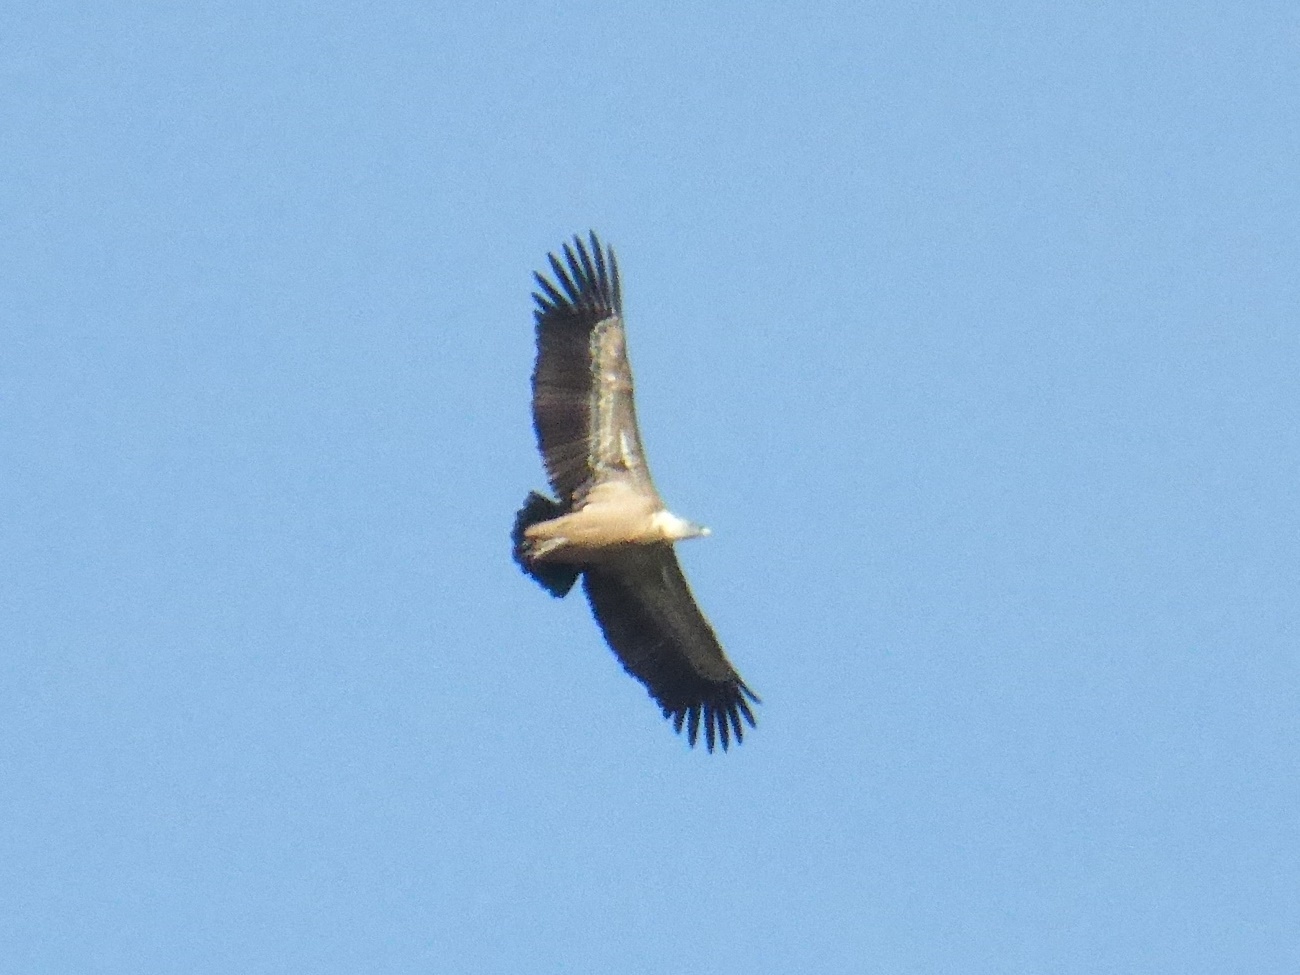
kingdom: Animalia
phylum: Chordata
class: Aves
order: Accipitriformes
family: Accipitridae
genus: Gyps
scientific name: Gyps fulvus
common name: Griffon vulture
